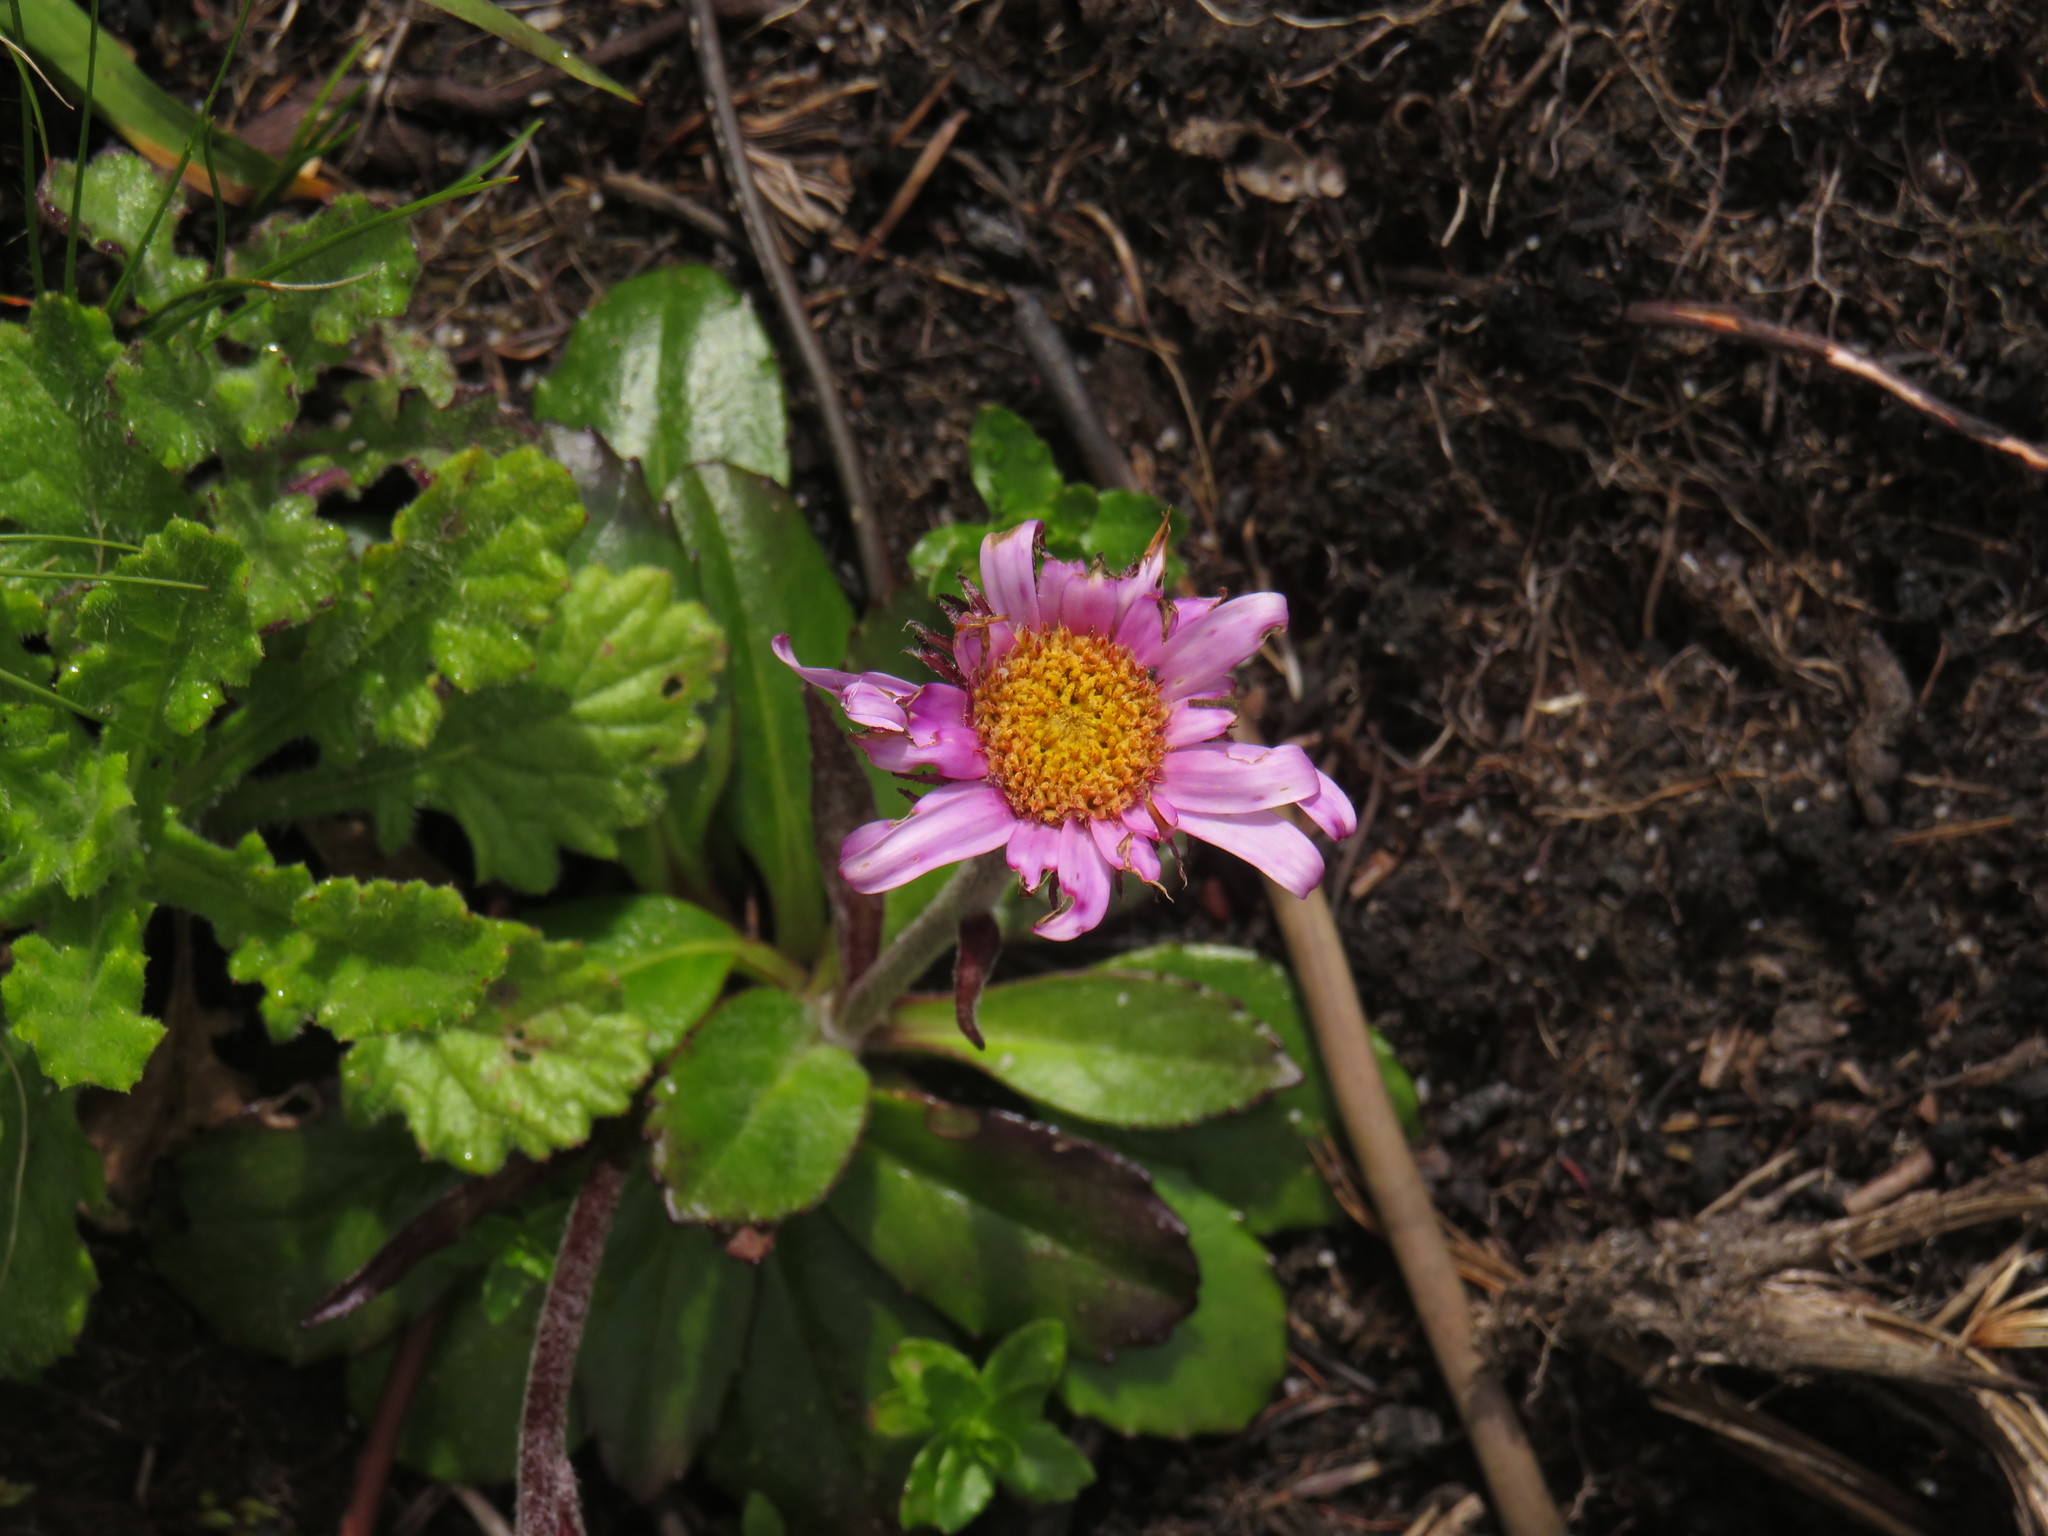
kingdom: Plantae
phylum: Tracheophyta
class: Magnoliopsida
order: Asterales
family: Asteraceae
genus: Zyrphelis
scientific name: Zyrphelis crenata
